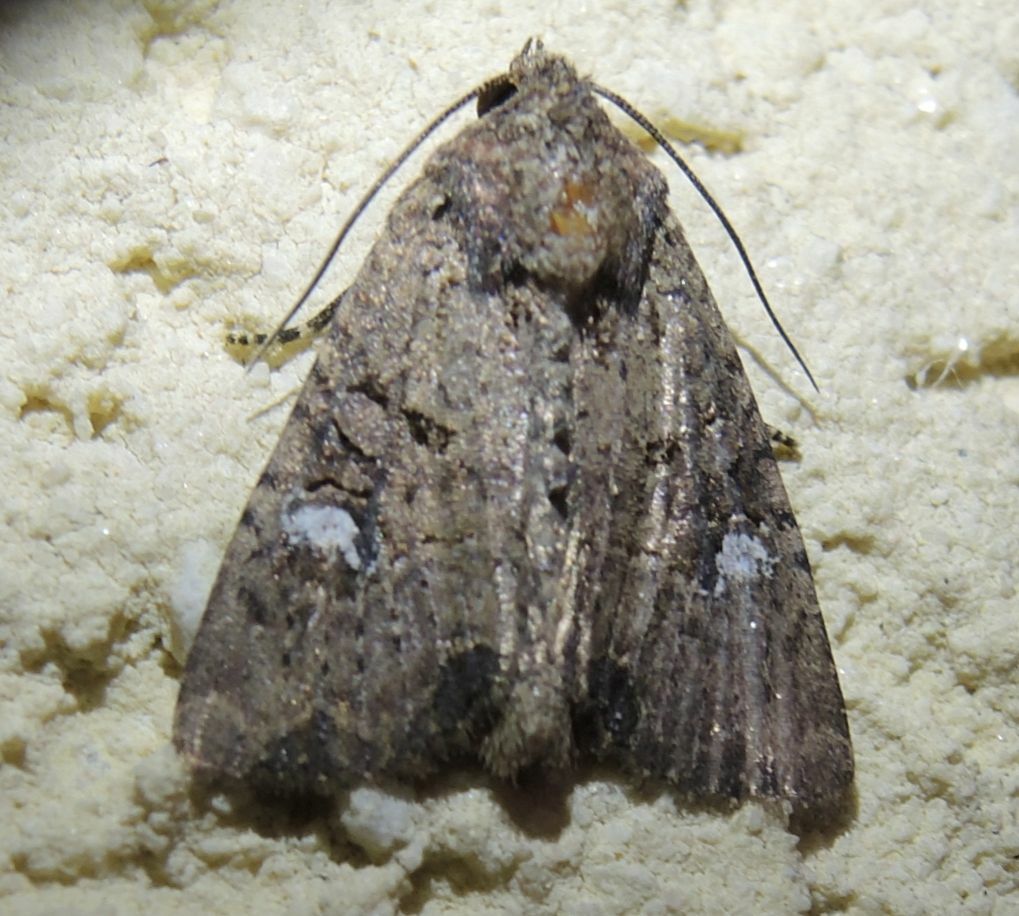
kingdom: Animalia
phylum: Arthropoda
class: Insecta
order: Lepidoptera
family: Noctuidae
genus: Mesapamea
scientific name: Mesapamea
